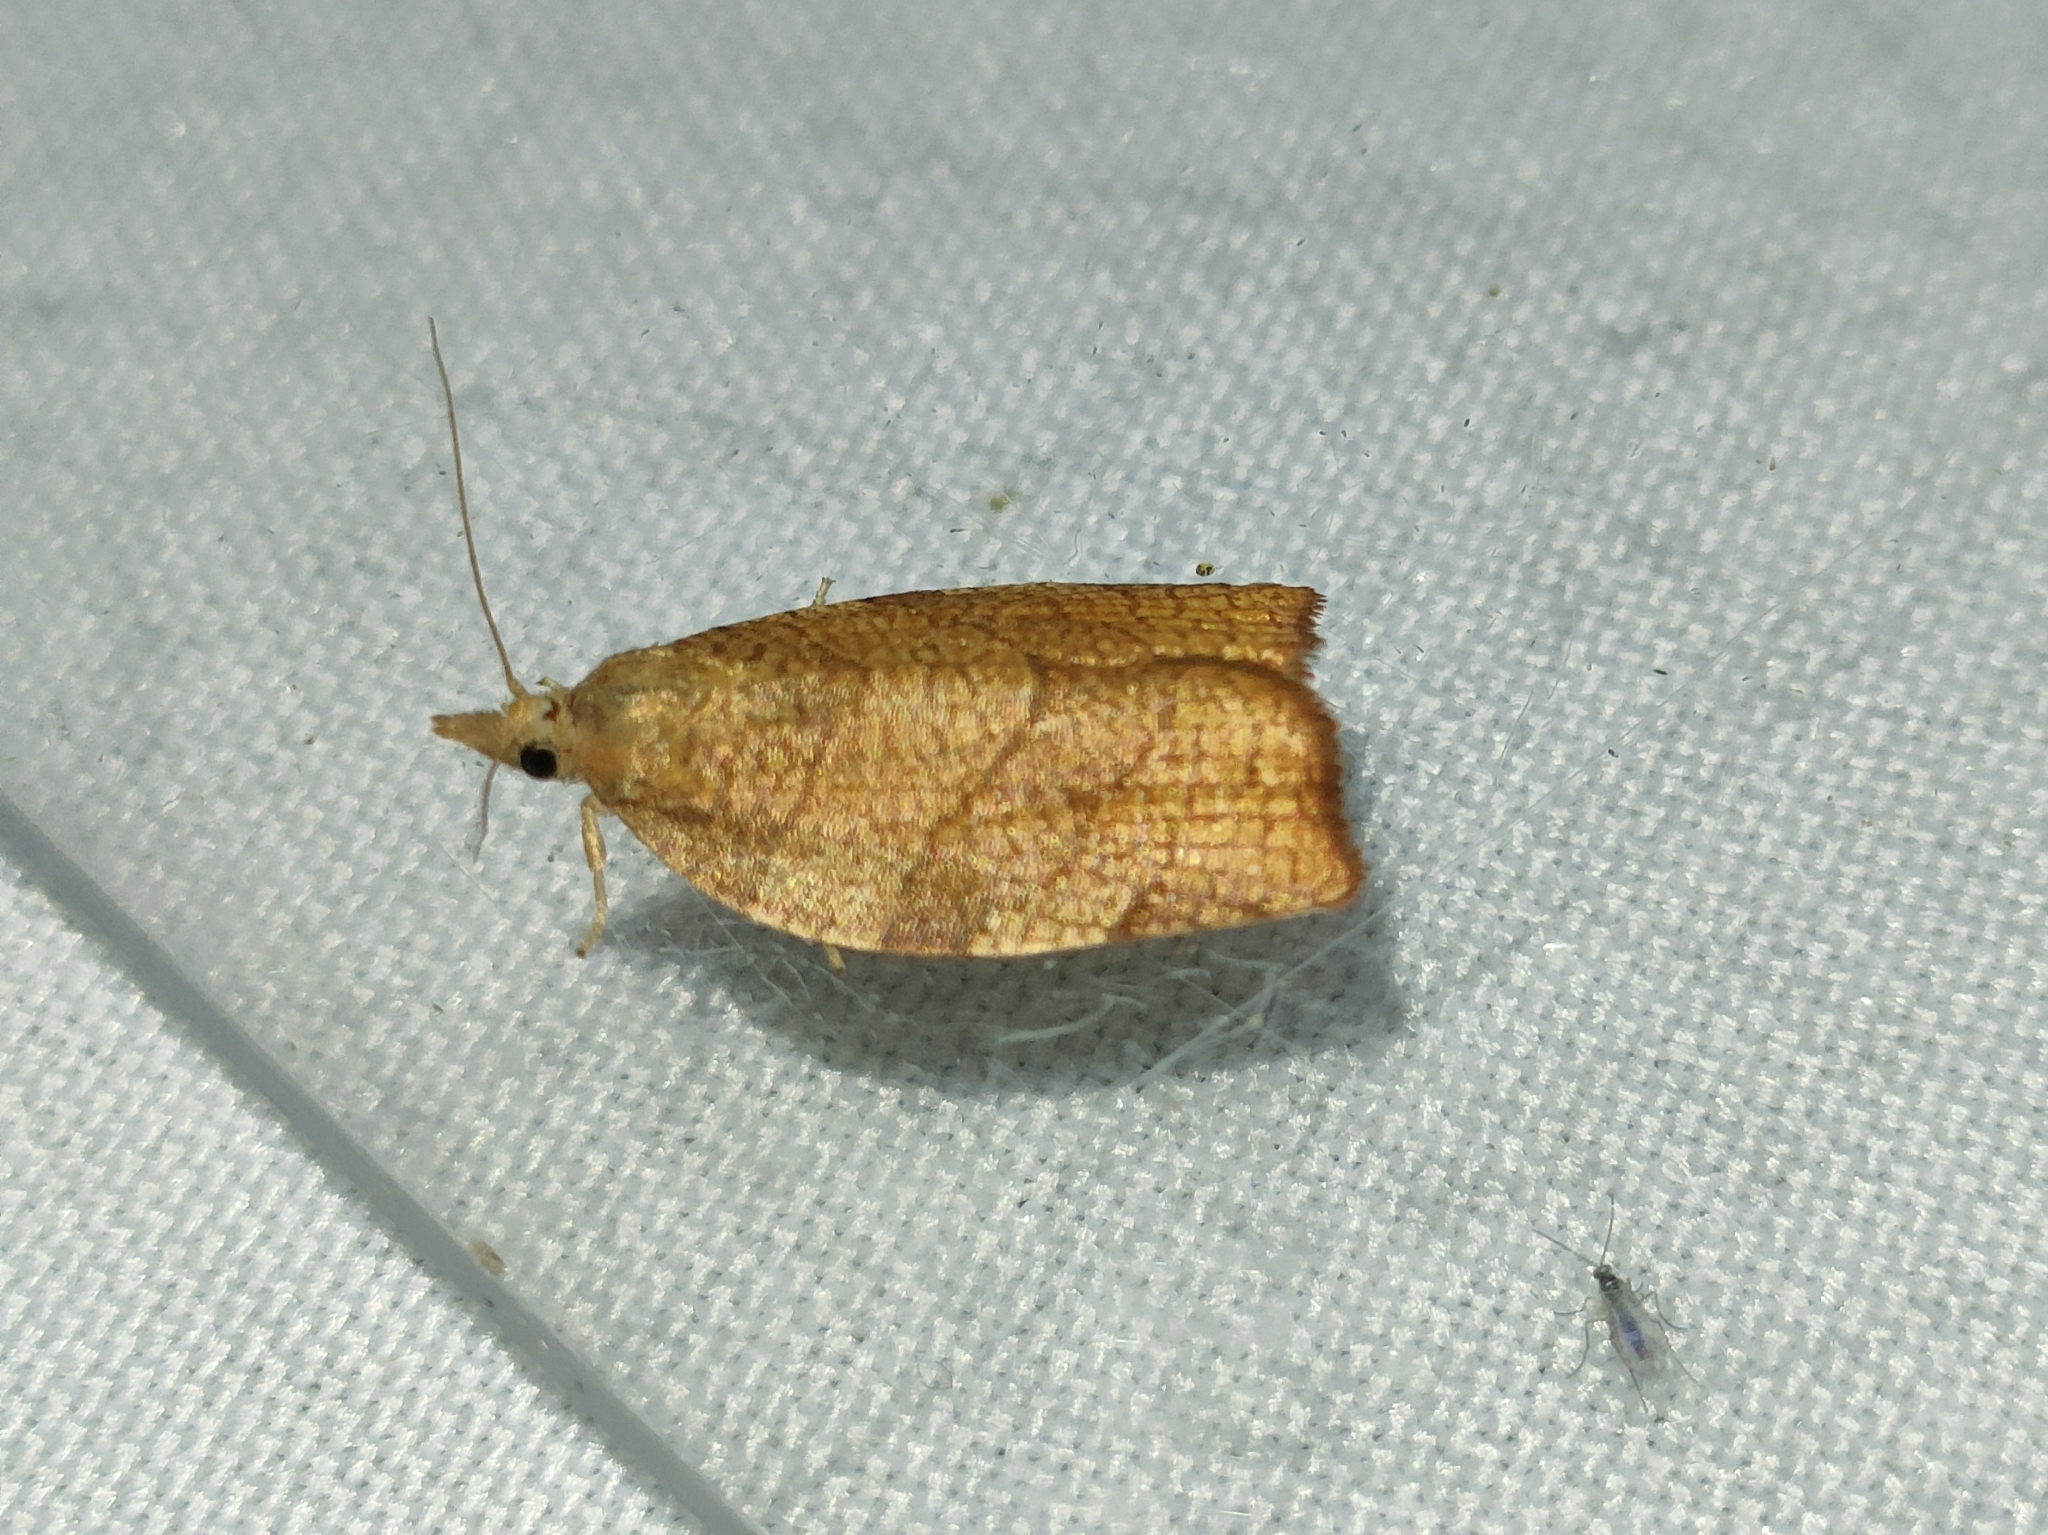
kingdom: Animalia
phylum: Arthropoda
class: Insecta
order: Lepidoptera
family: Tortricidae
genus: Pandemis
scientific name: Pandemis corylana
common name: Chequered fruit-tree tortrix
